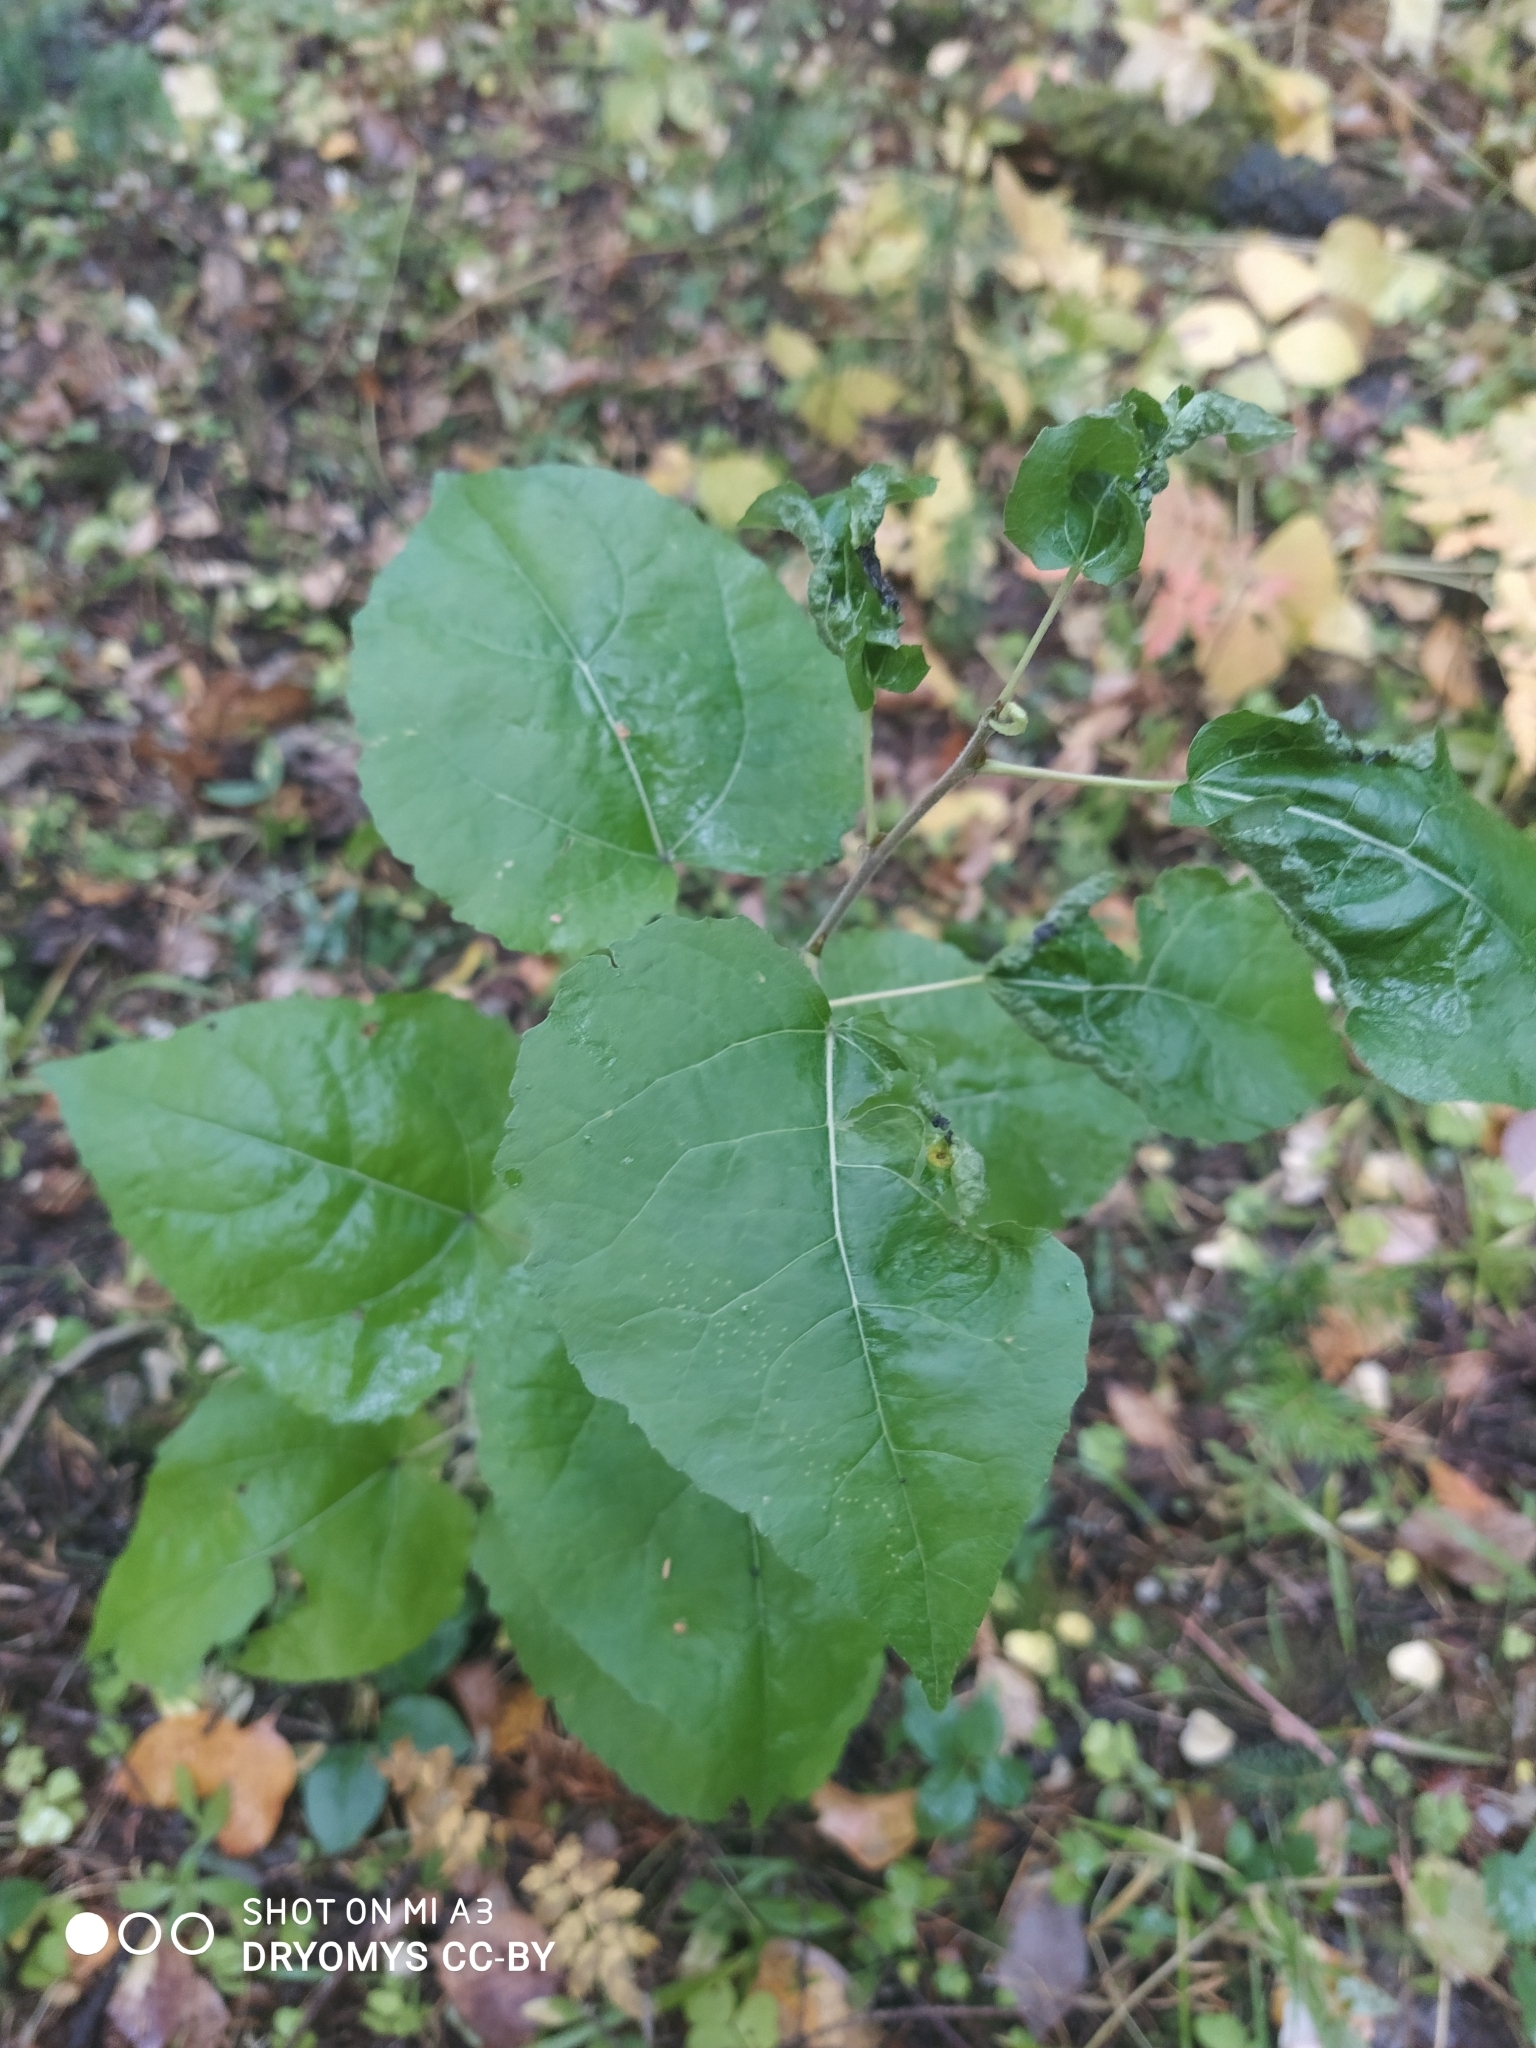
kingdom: Plantae
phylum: Tracheophyta
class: Magnoliopsida
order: Malpighiales
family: Salicaceae
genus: Populus
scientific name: Populus tremula
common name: European aspen
